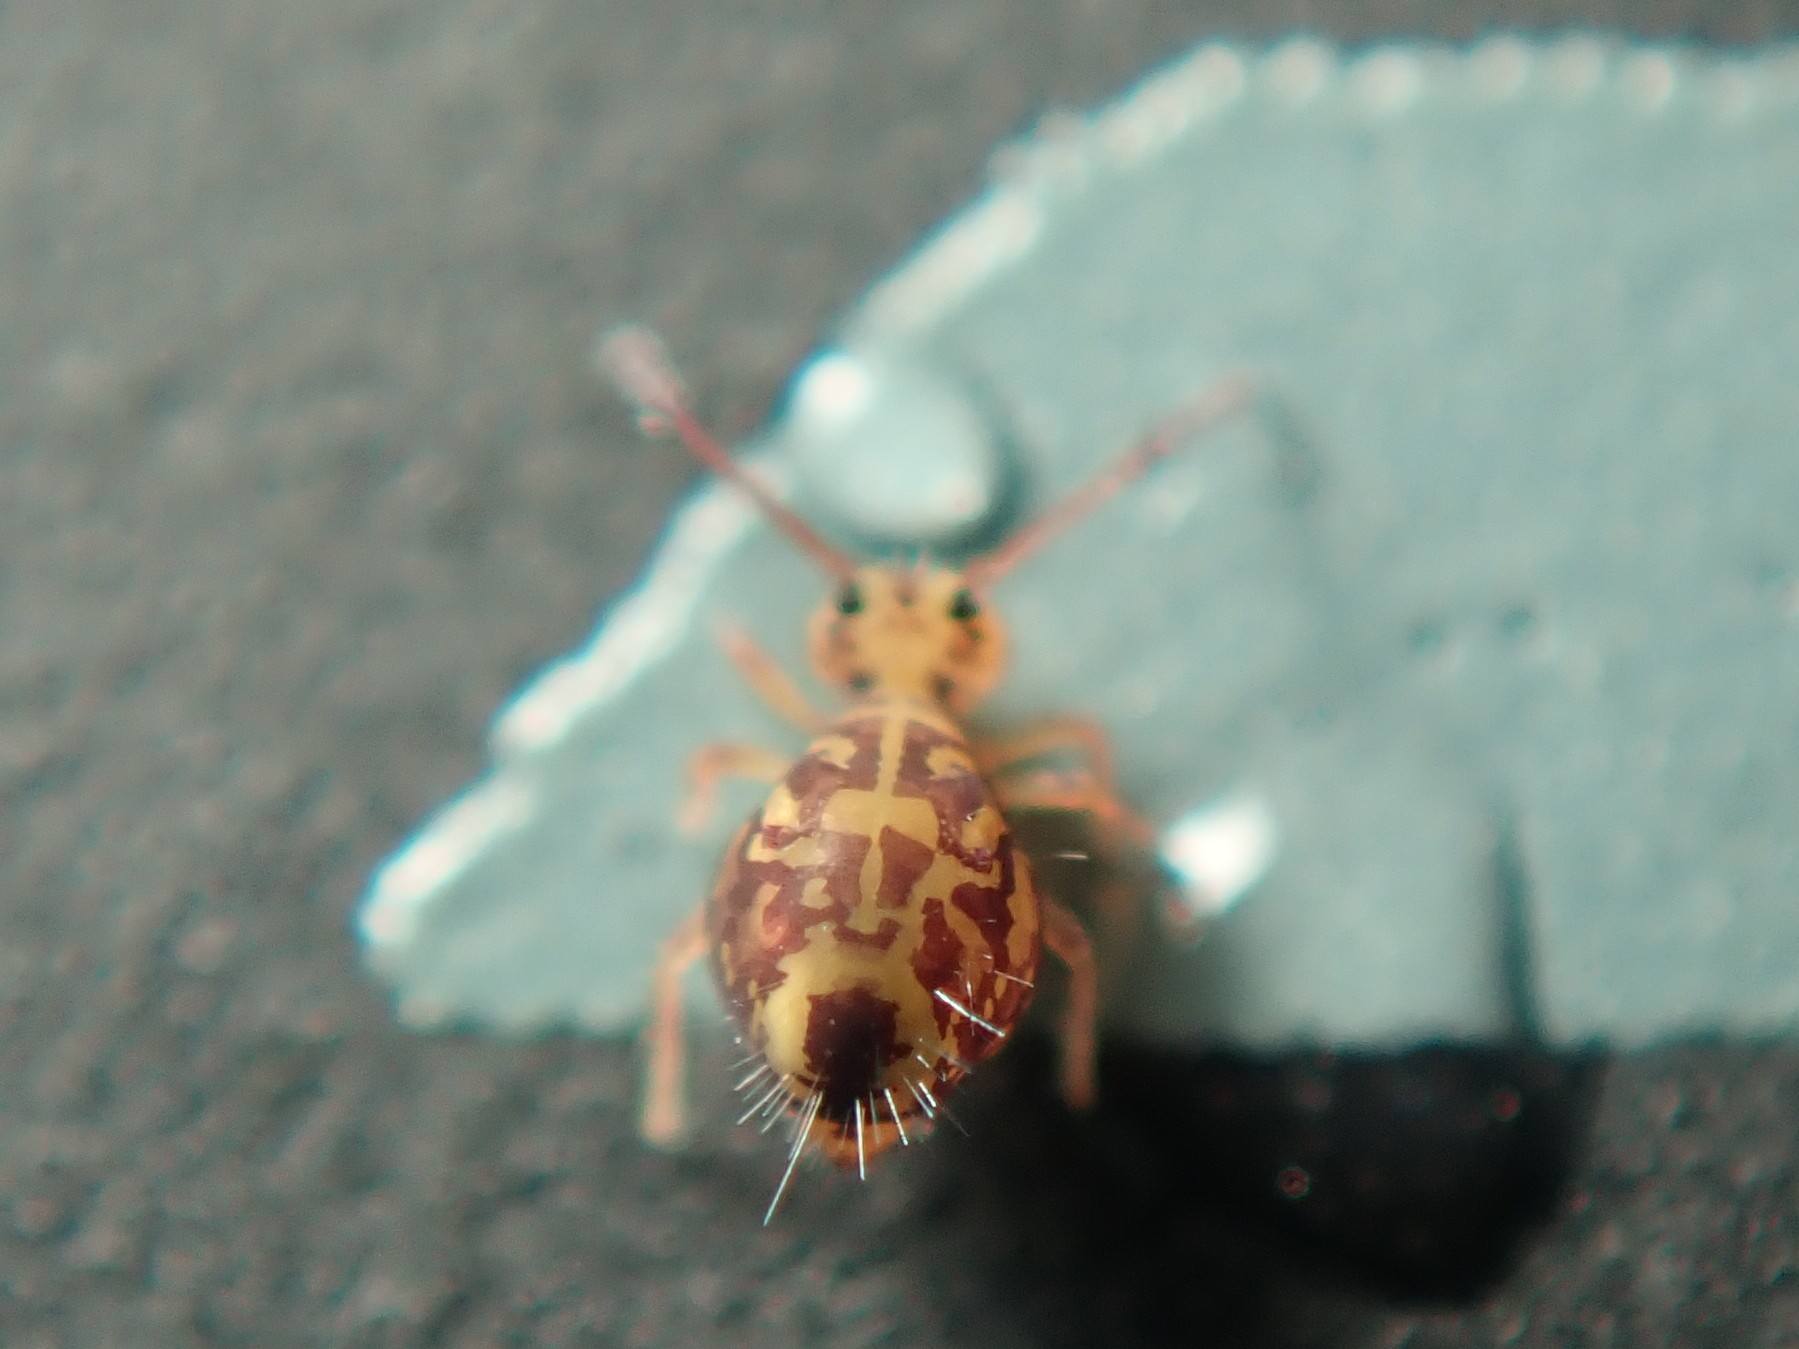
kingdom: Animalia
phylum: Arthropoda
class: Collembola
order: Symphypleona
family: Dicyrtomidae
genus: Dicyrtomina
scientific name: Dicyrtomina ornata
